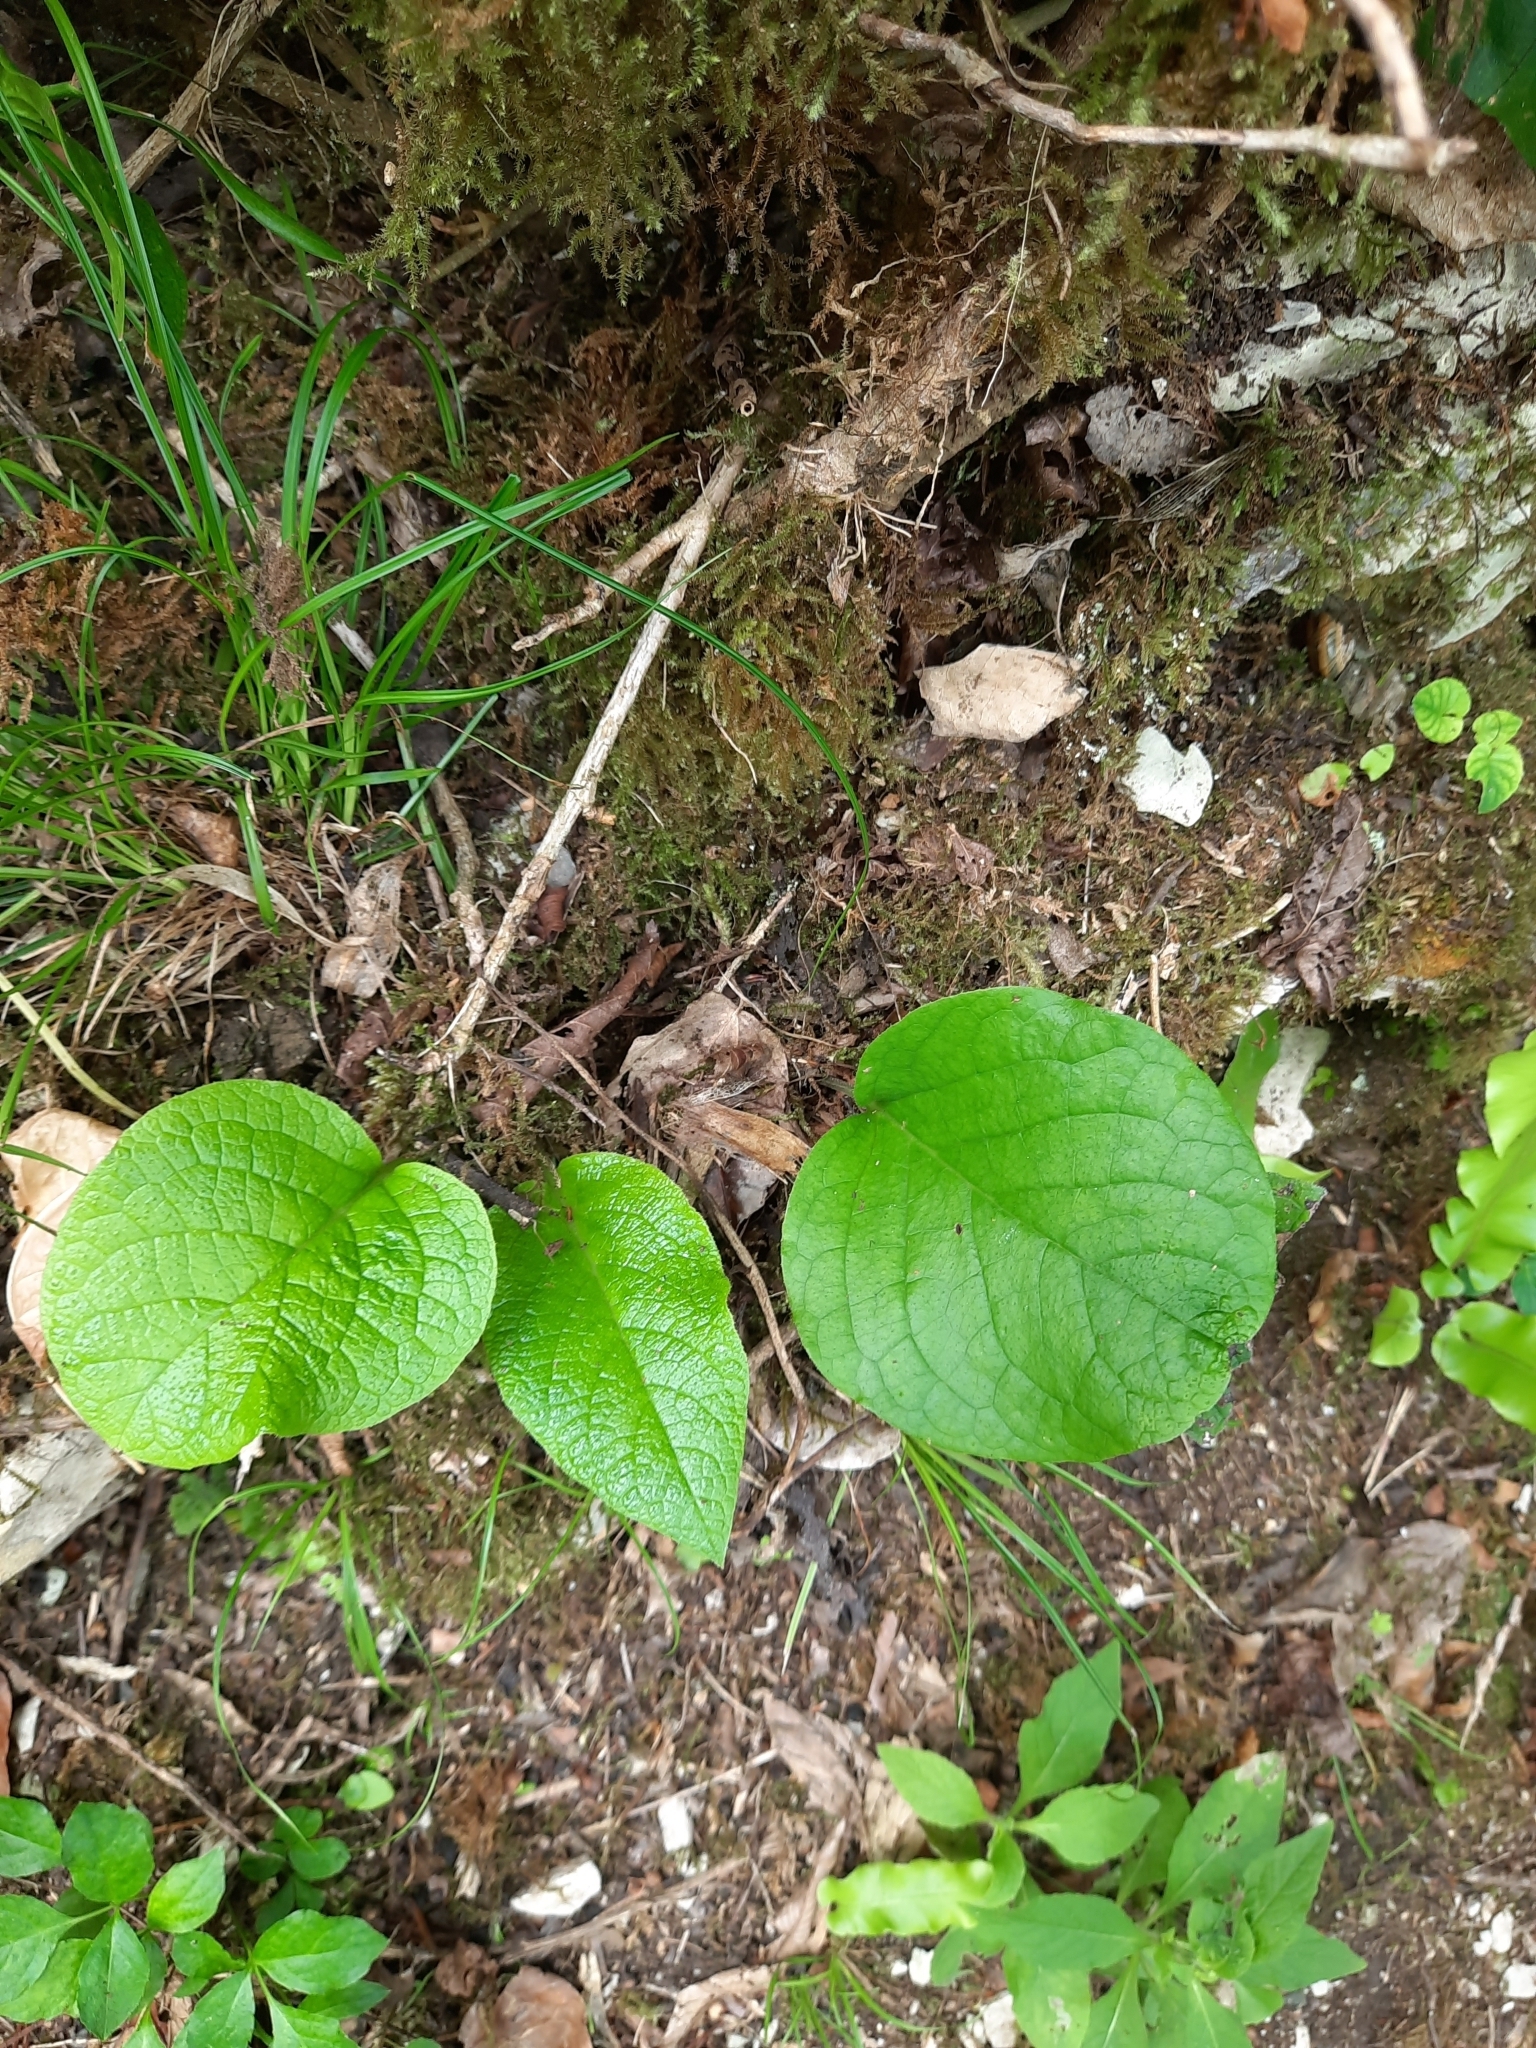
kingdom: Plantae
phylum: Tracheophyta
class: Magnoliopsida
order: Boraginales
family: Boraginaceae
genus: Trachystemon
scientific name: Trachystemon orientale
